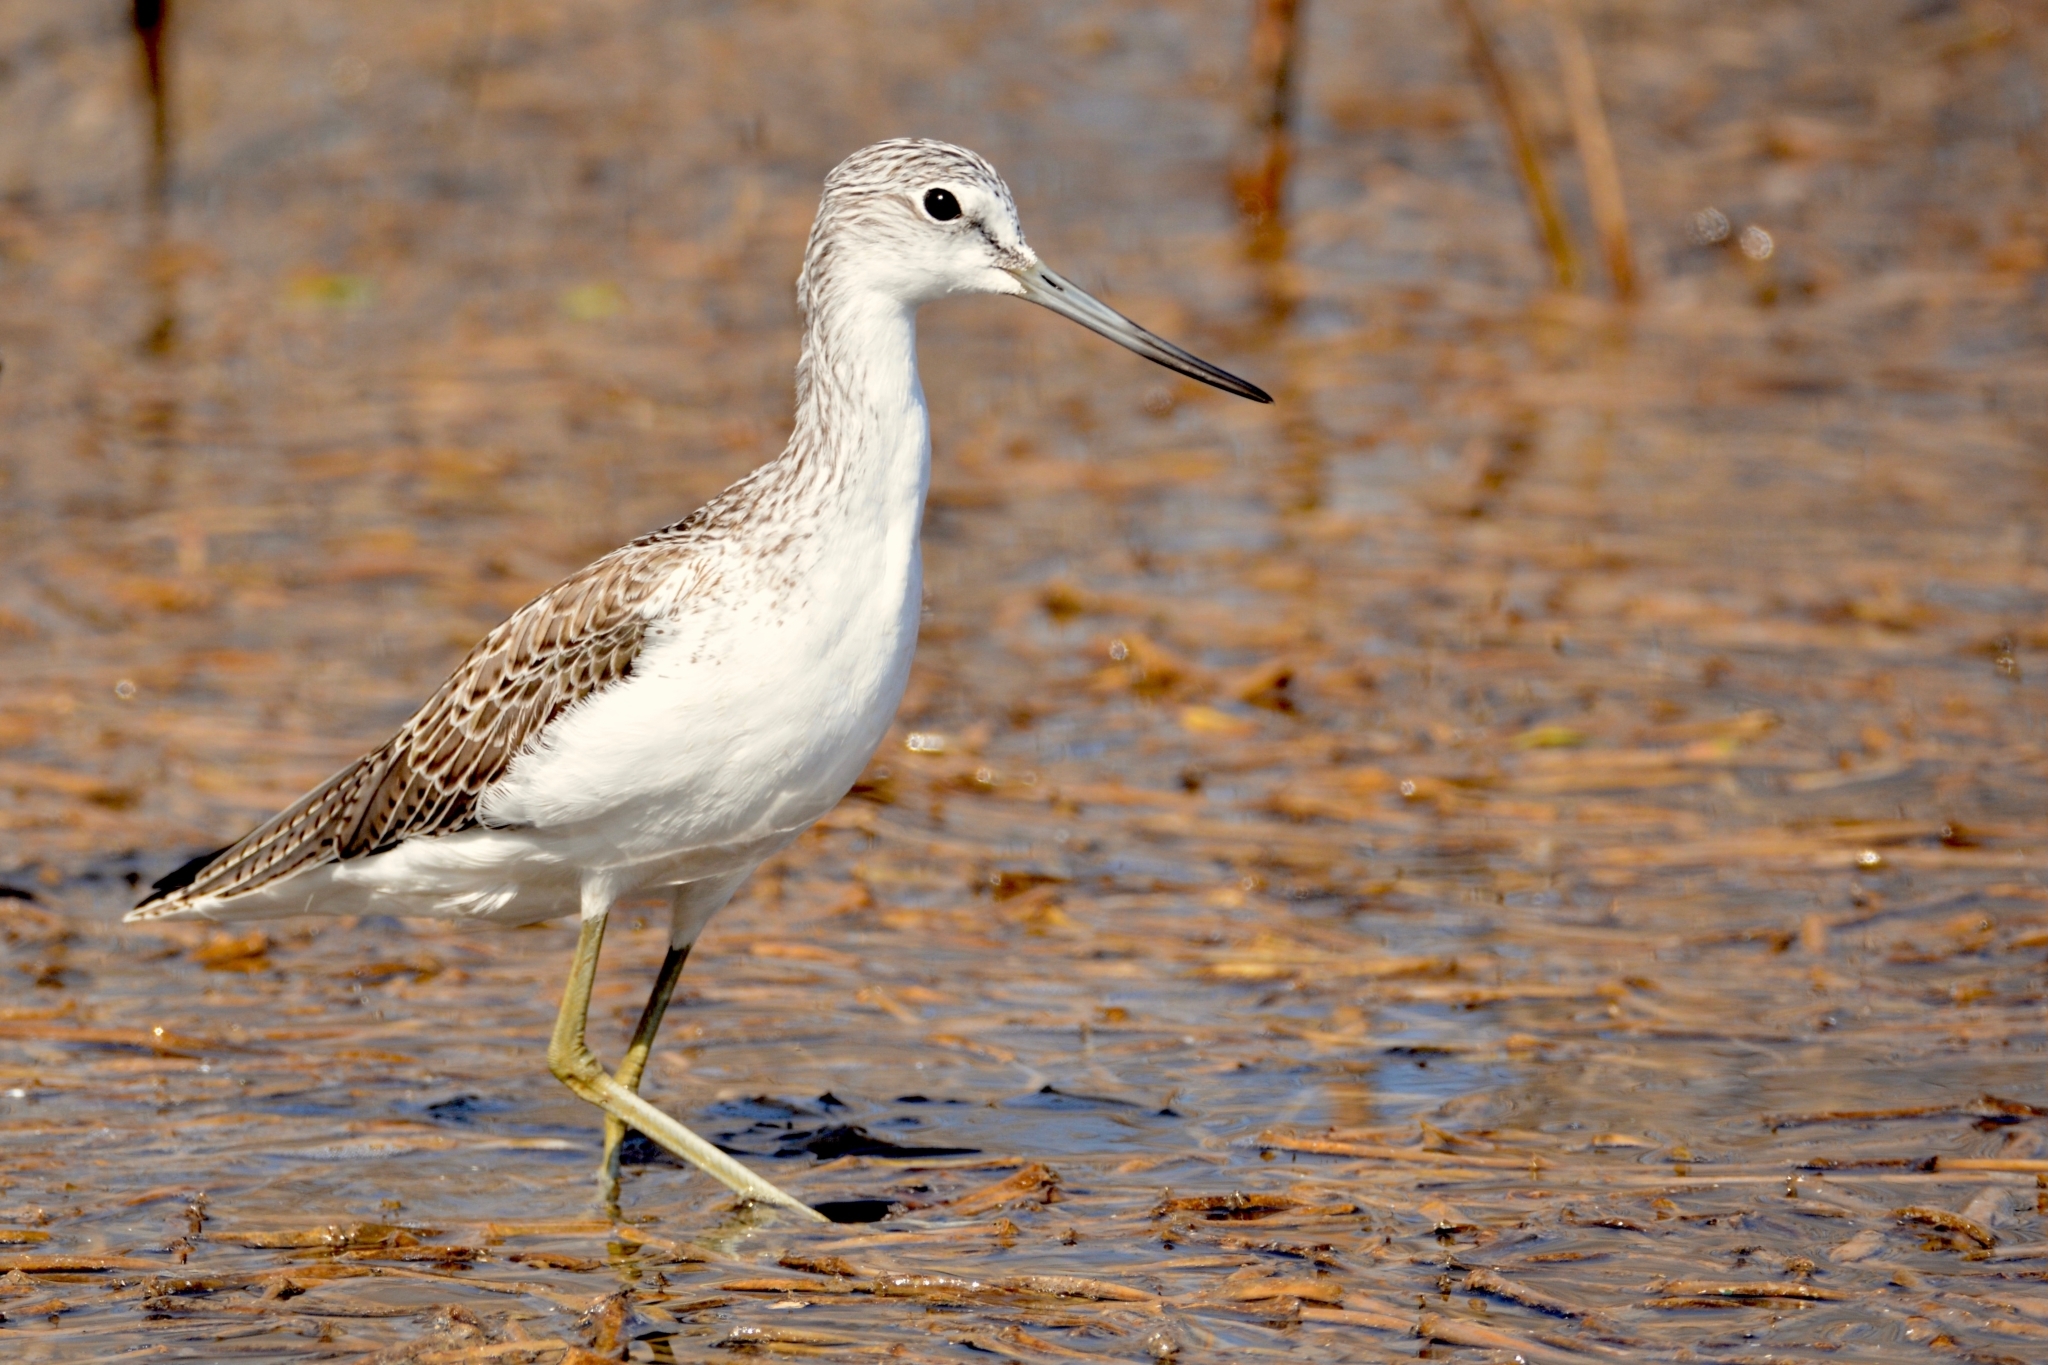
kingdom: Animalia
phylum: Chordata
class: Aves
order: Charadriiformes
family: Scolopacidae
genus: Tringa
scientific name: Tringa nebularia
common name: Common greenshank
